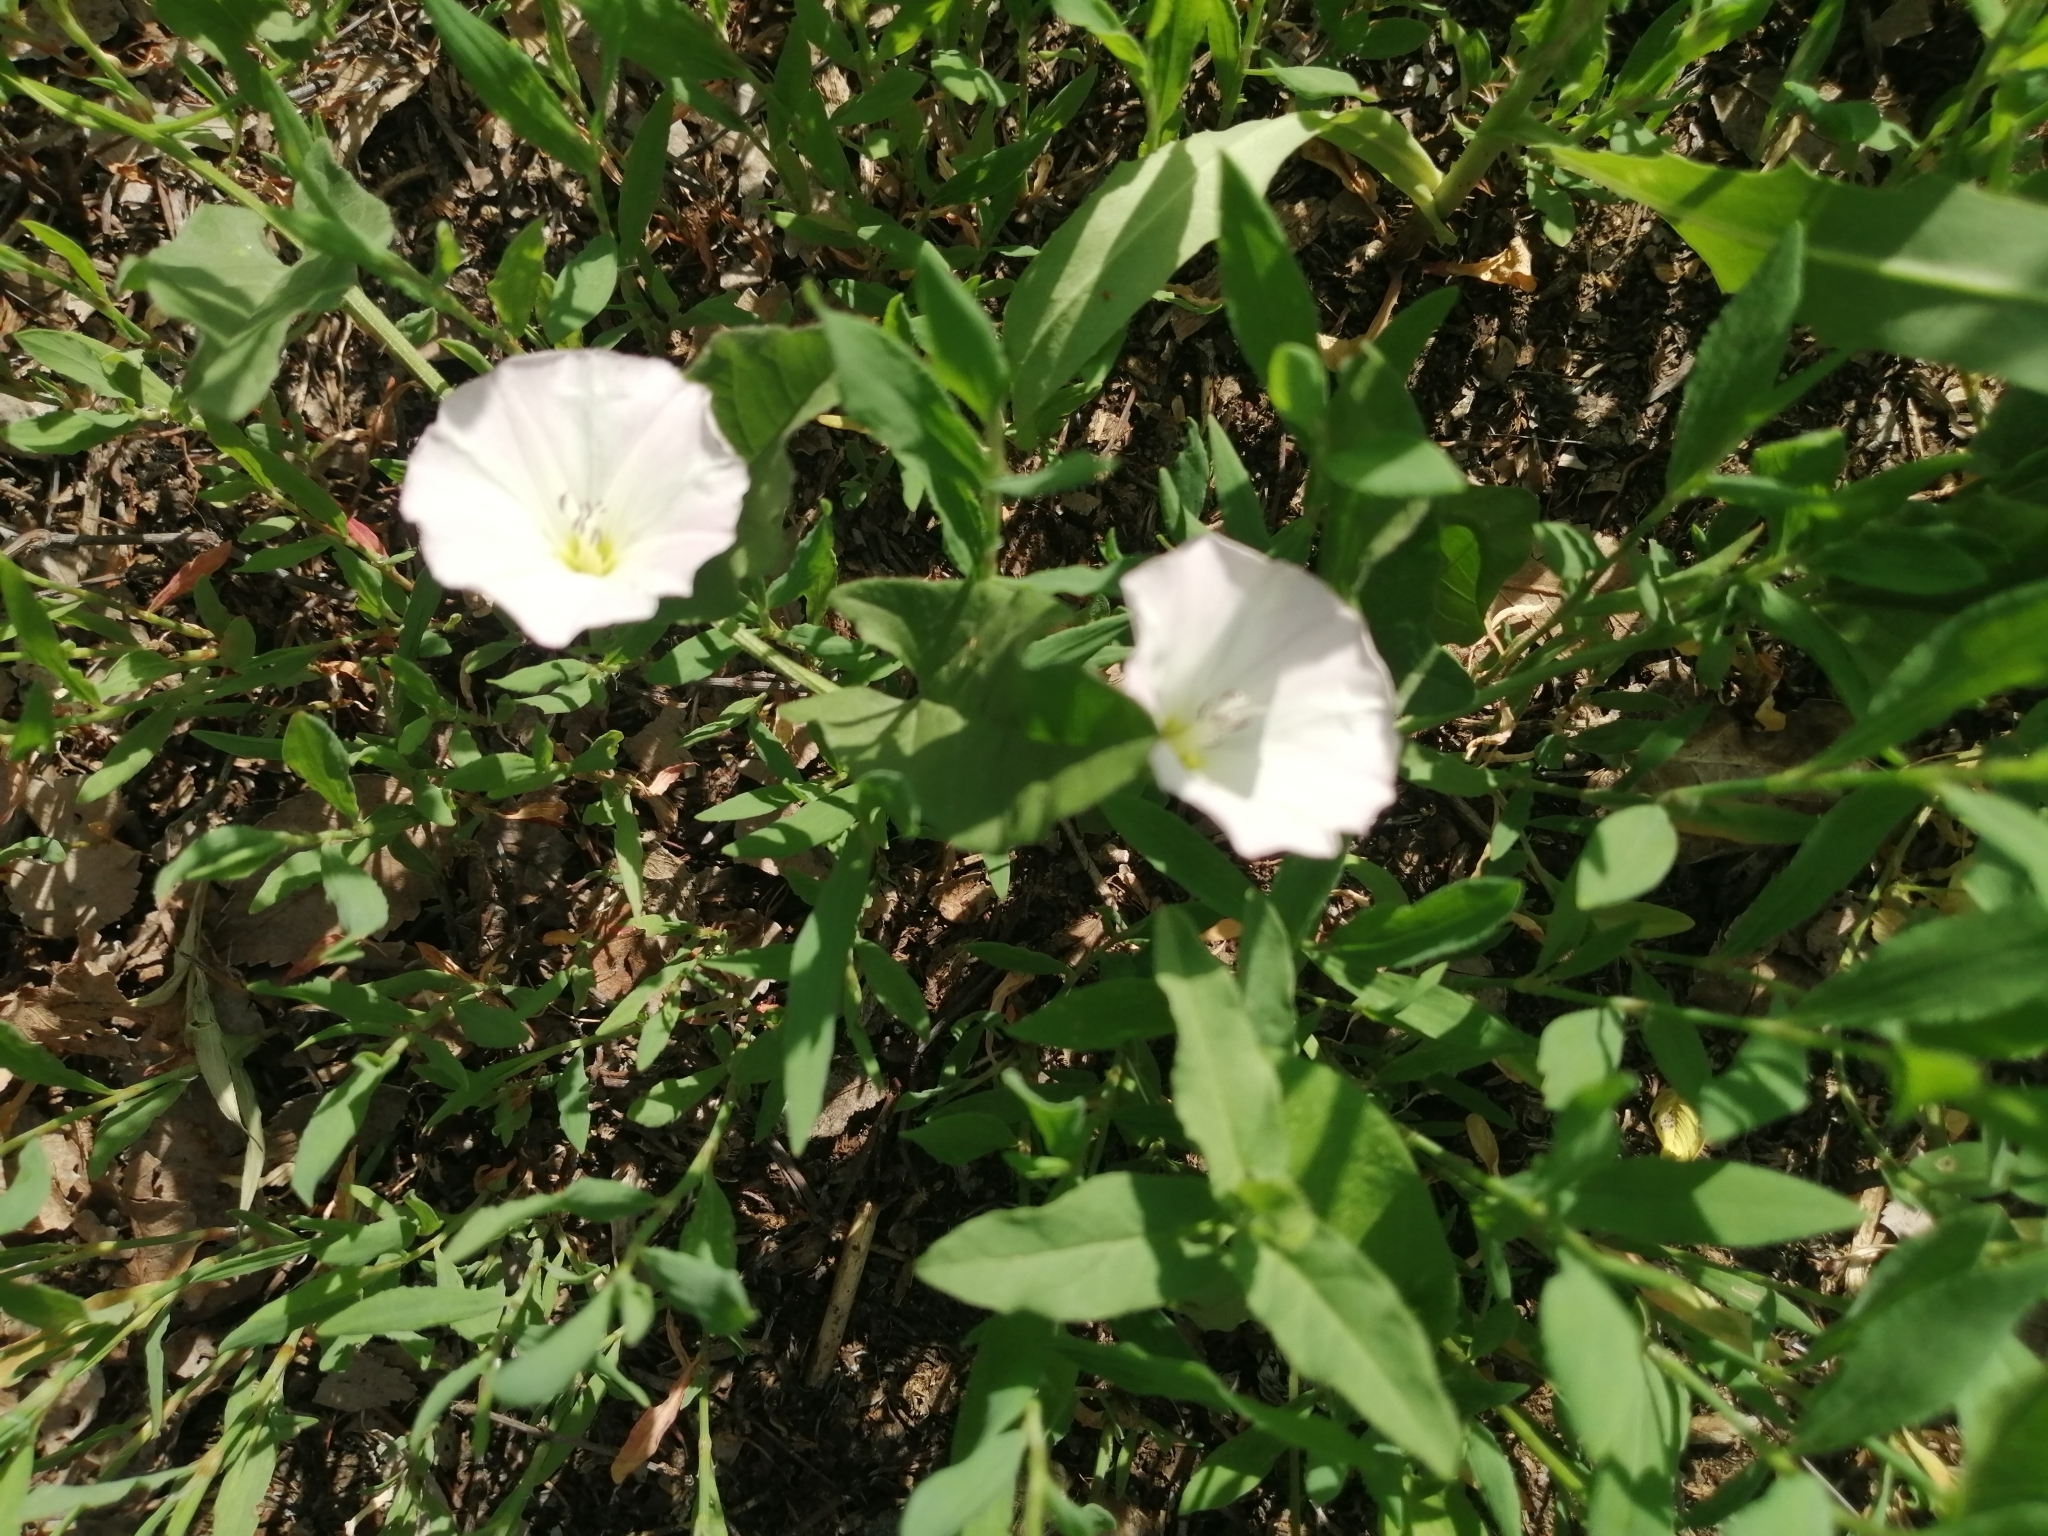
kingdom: Plantae
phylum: Tracheophyta
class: Magnoliopsida
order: Solanales
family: Convolvulaceae
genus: Convolvulus
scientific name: Convolvulus arvensis
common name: Field bindweed
